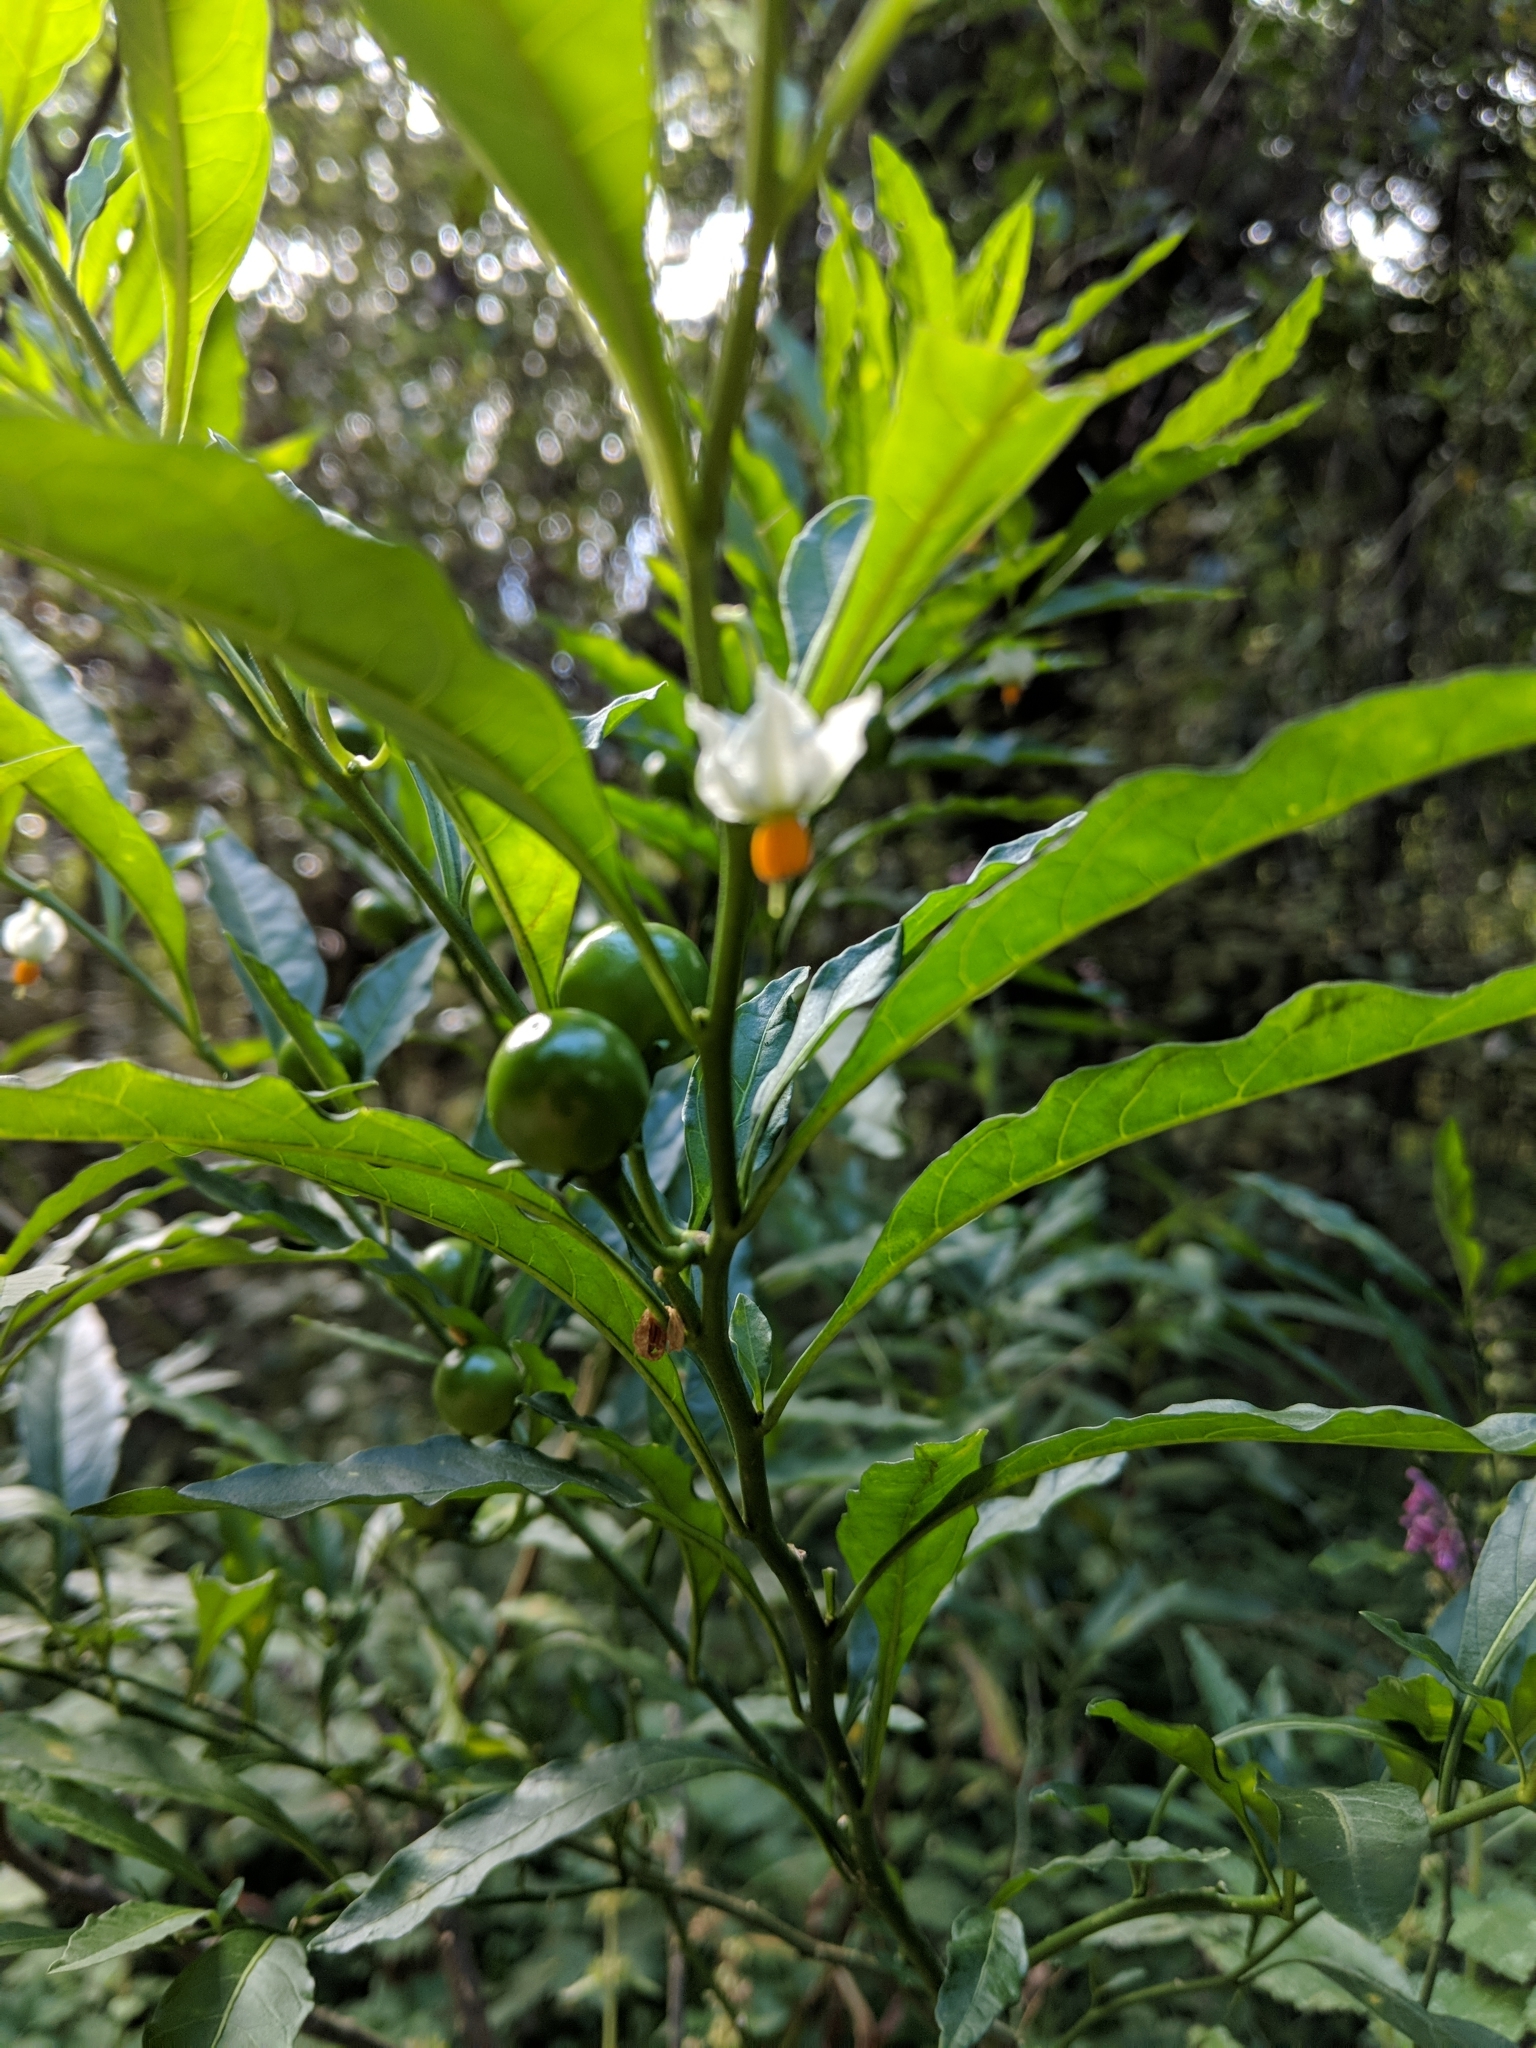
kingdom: Plantae
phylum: Tracheophyta
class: Magnoliopsida
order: Solanales
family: Solanaceae
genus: Solanum
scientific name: Solanum pseudocapsicum
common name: Jerusalem cherry
